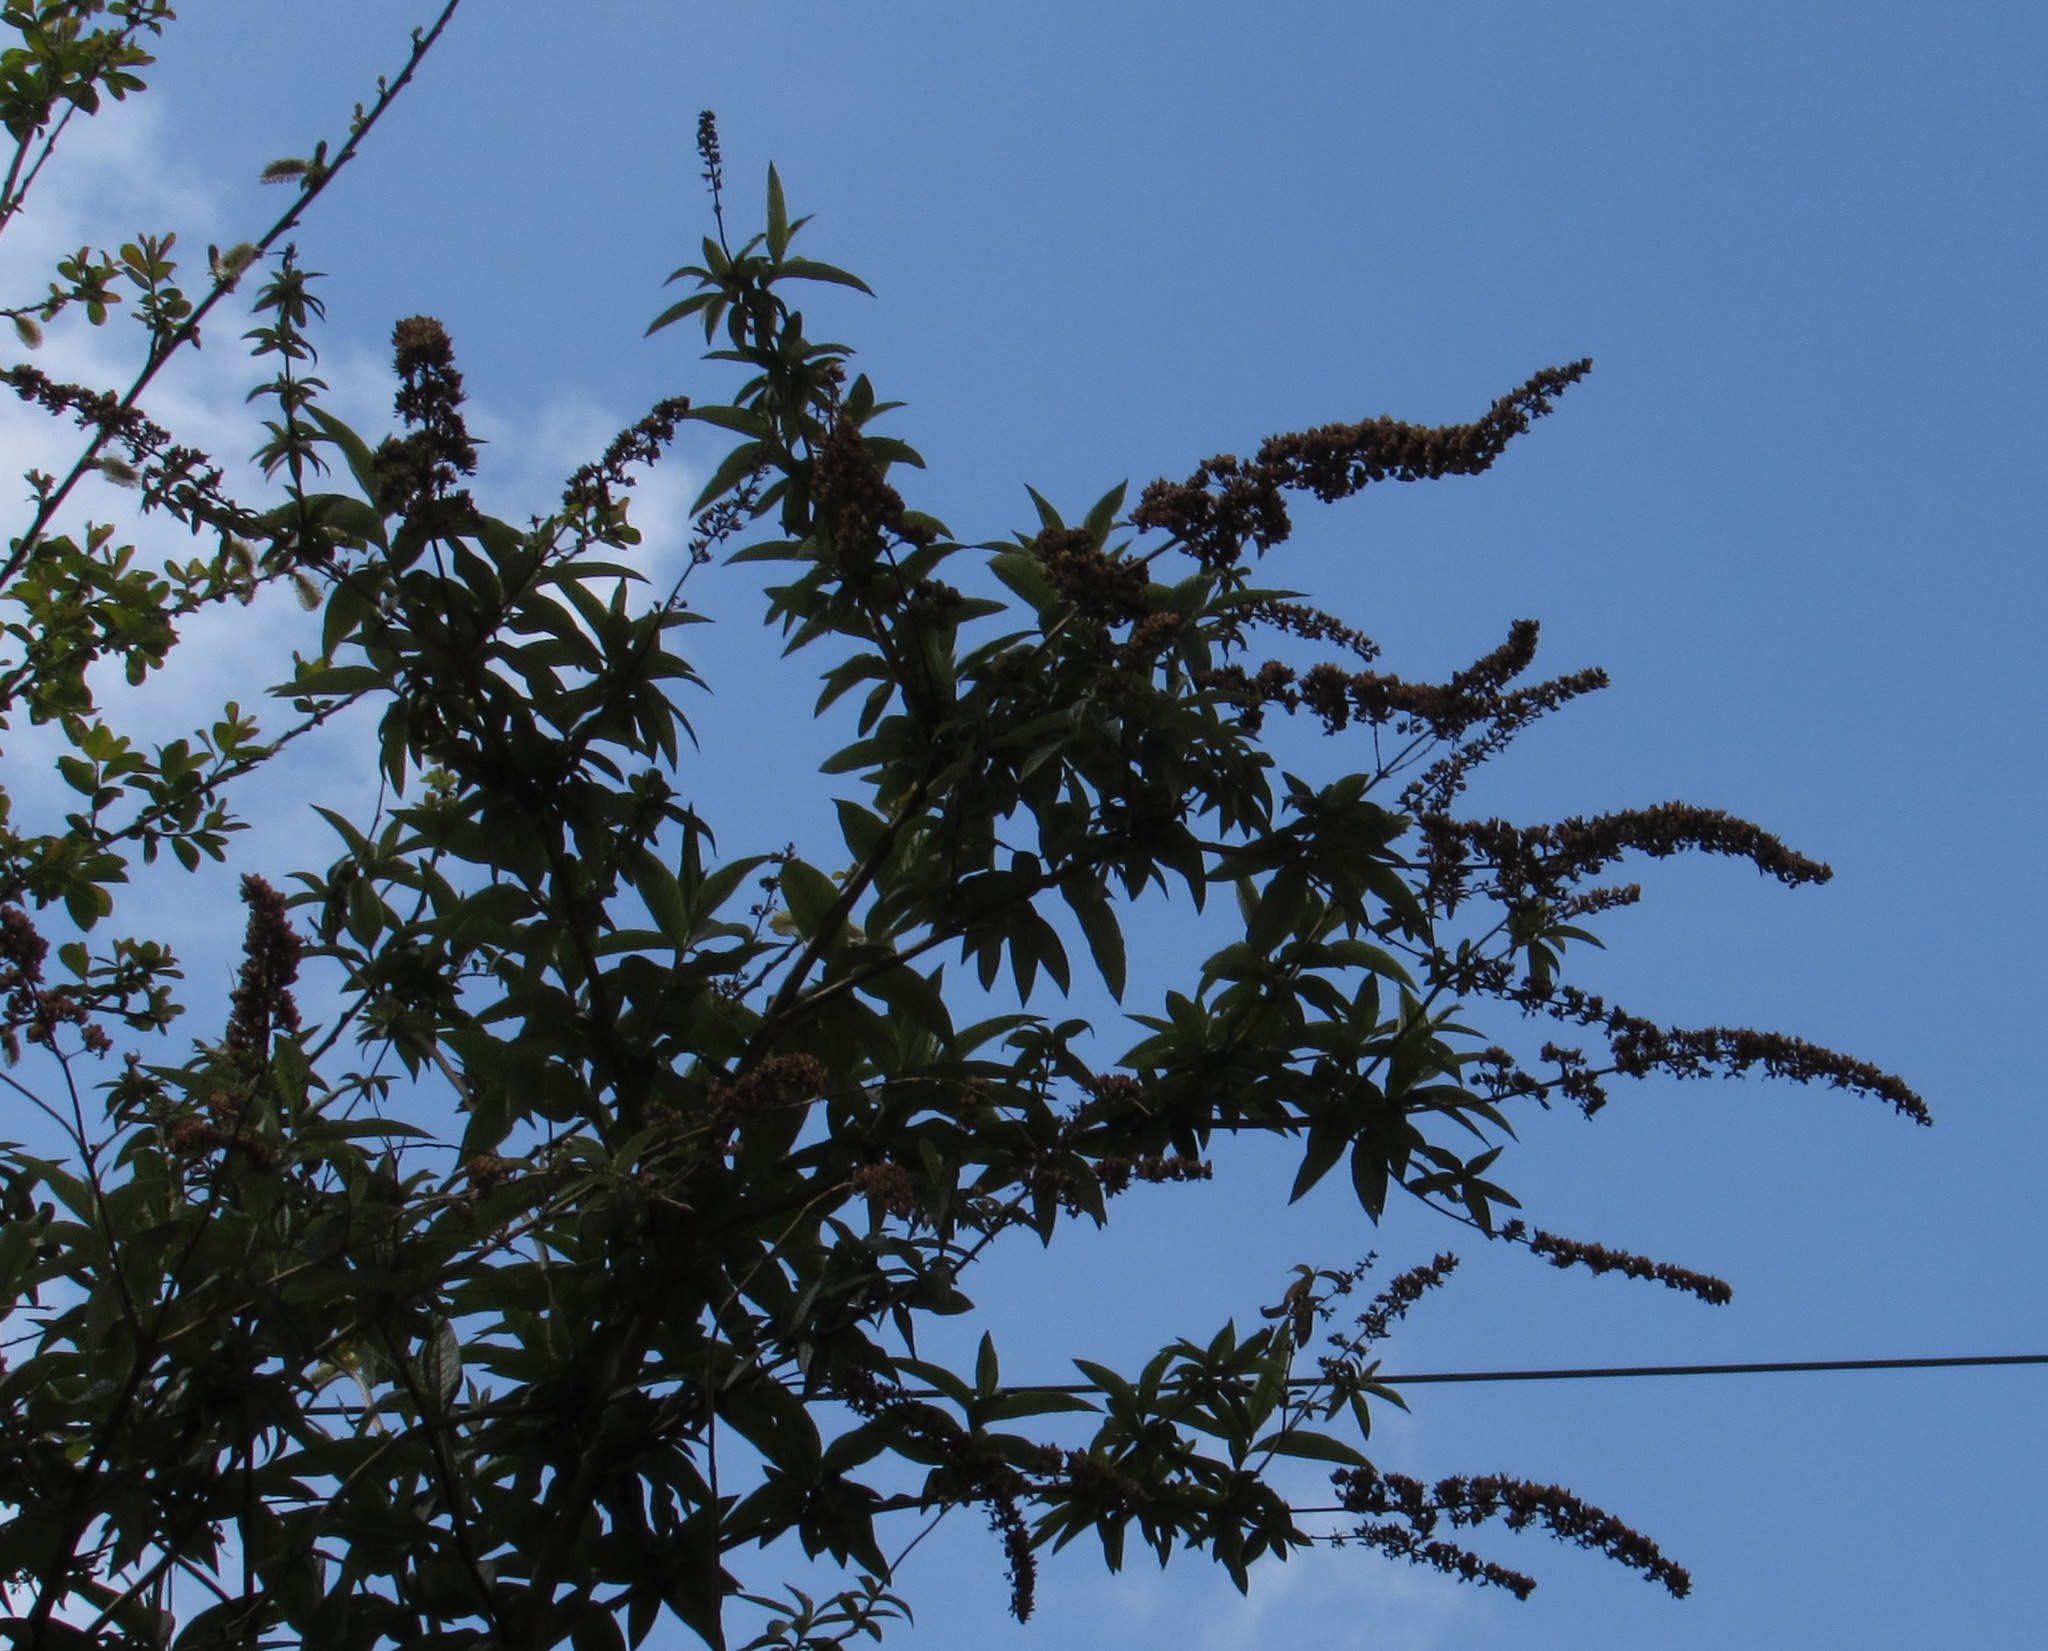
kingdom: Plantae
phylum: Tracheophyta
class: Magnoliopsida
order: Lamiales
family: Scrophulariaceae
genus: Buddleja
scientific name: Buddleja davidii
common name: Butterfly-bush
